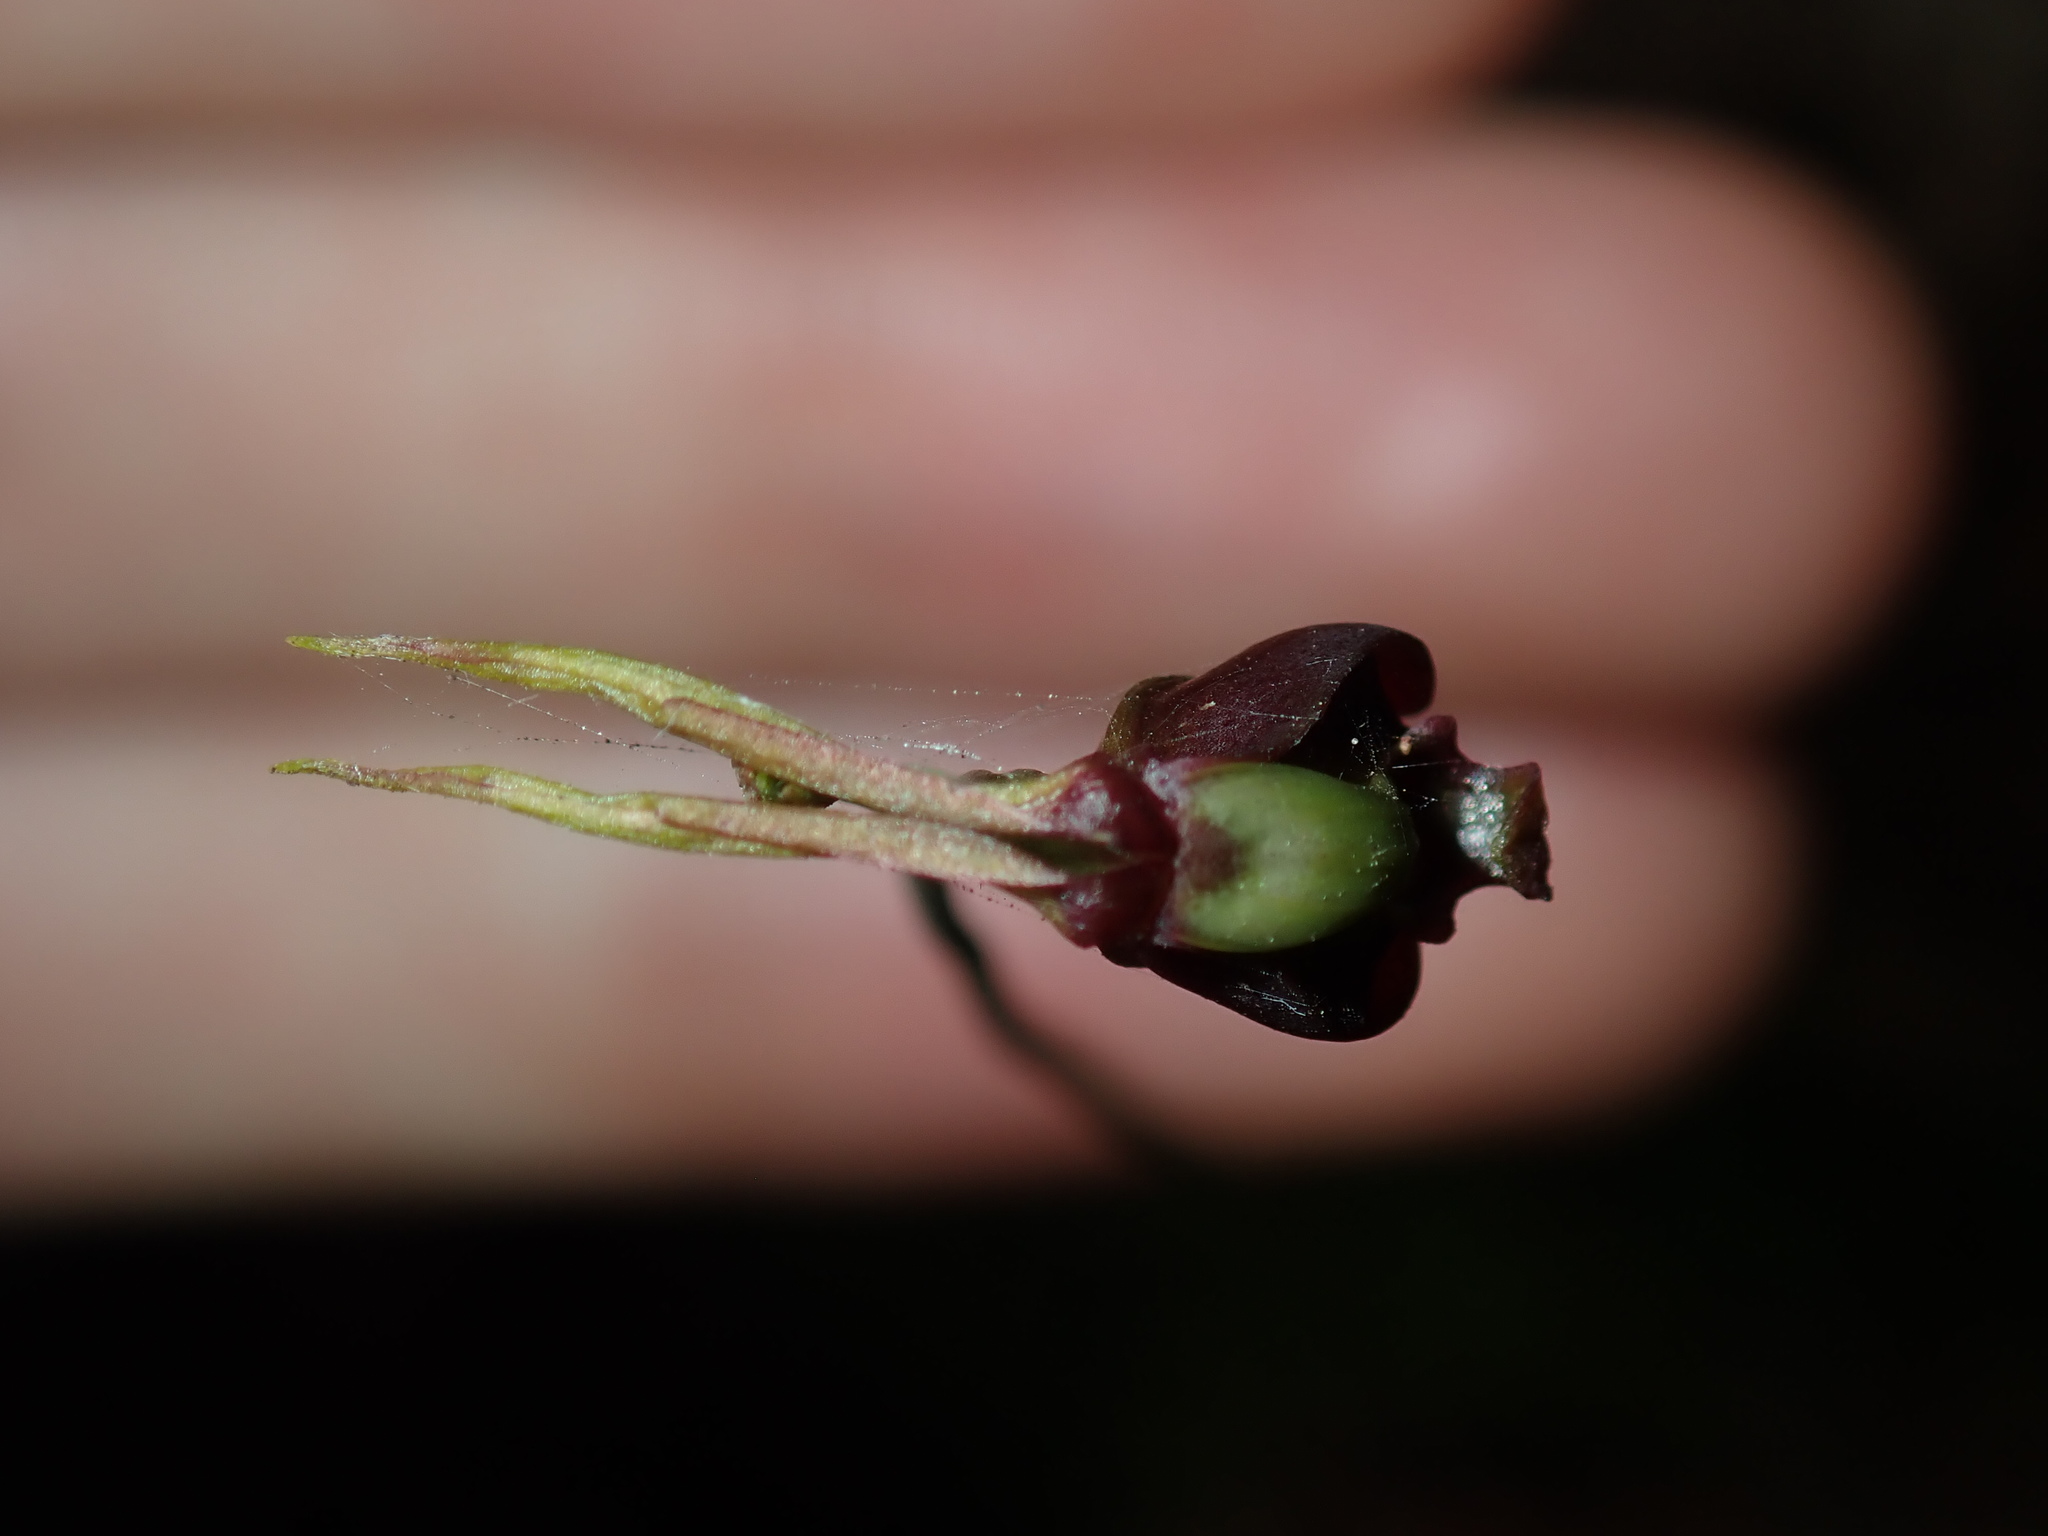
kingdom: Plantae
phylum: Tracheophyta
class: Liliopsida
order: Asparagales
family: Orchidaceae
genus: Caleana
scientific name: Caleana major
